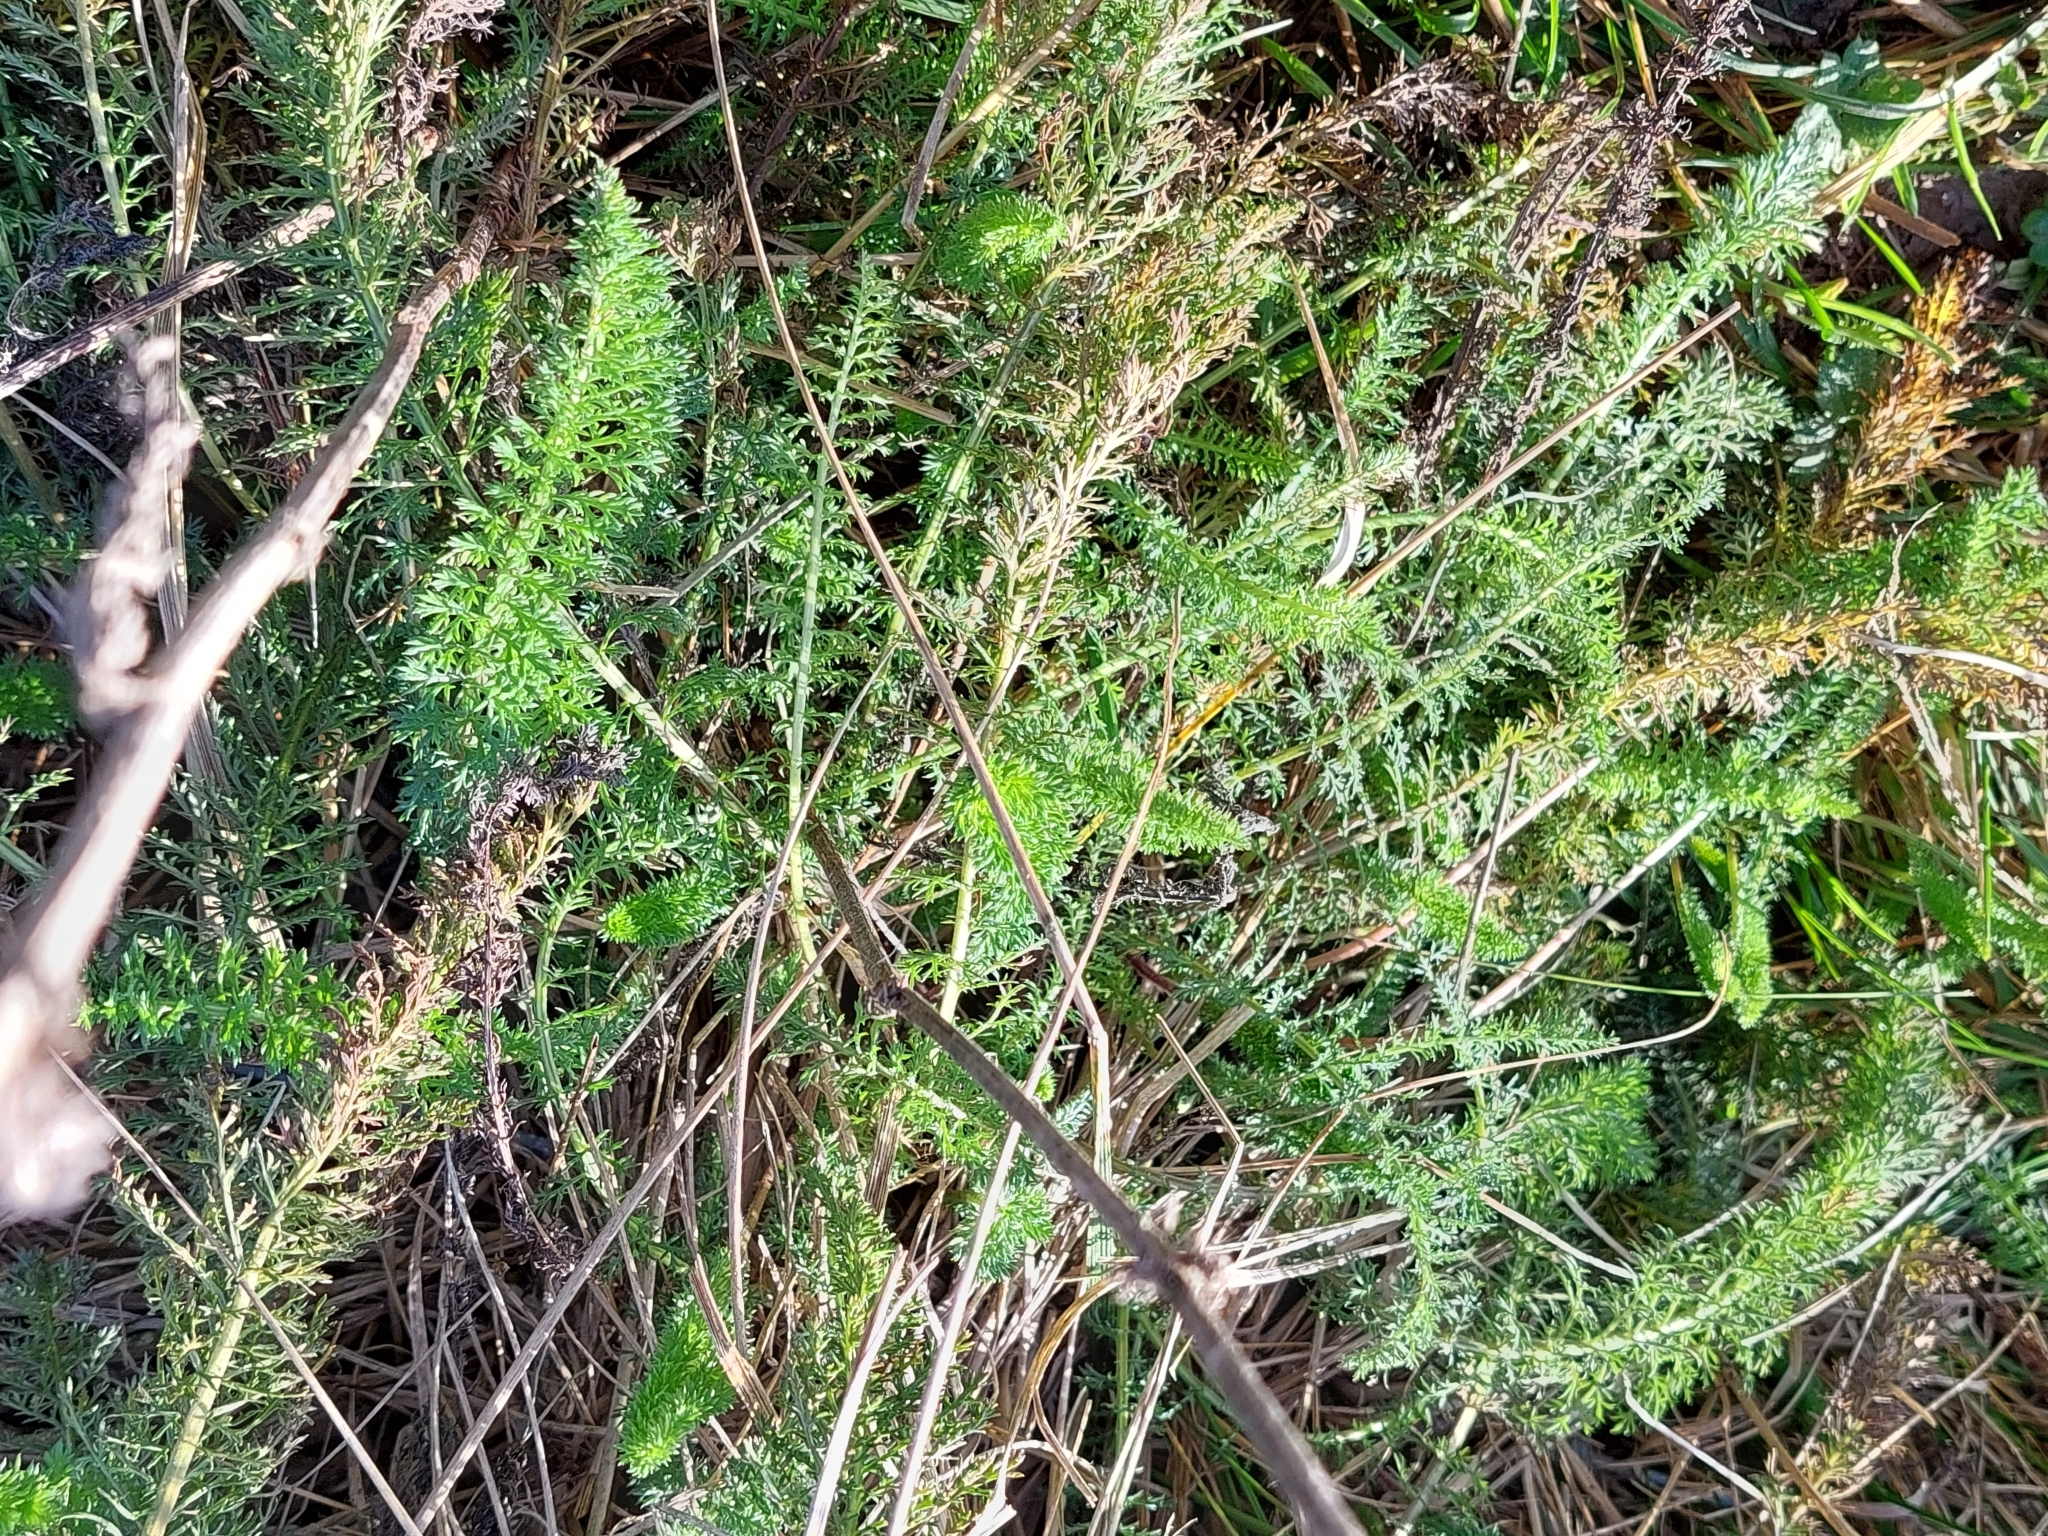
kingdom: Plantae
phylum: Tracheophyta
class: Magnoliopsida
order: Asterales
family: Asteraceae
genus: Achillea
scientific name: Achillea millefolium
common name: Yarrow
